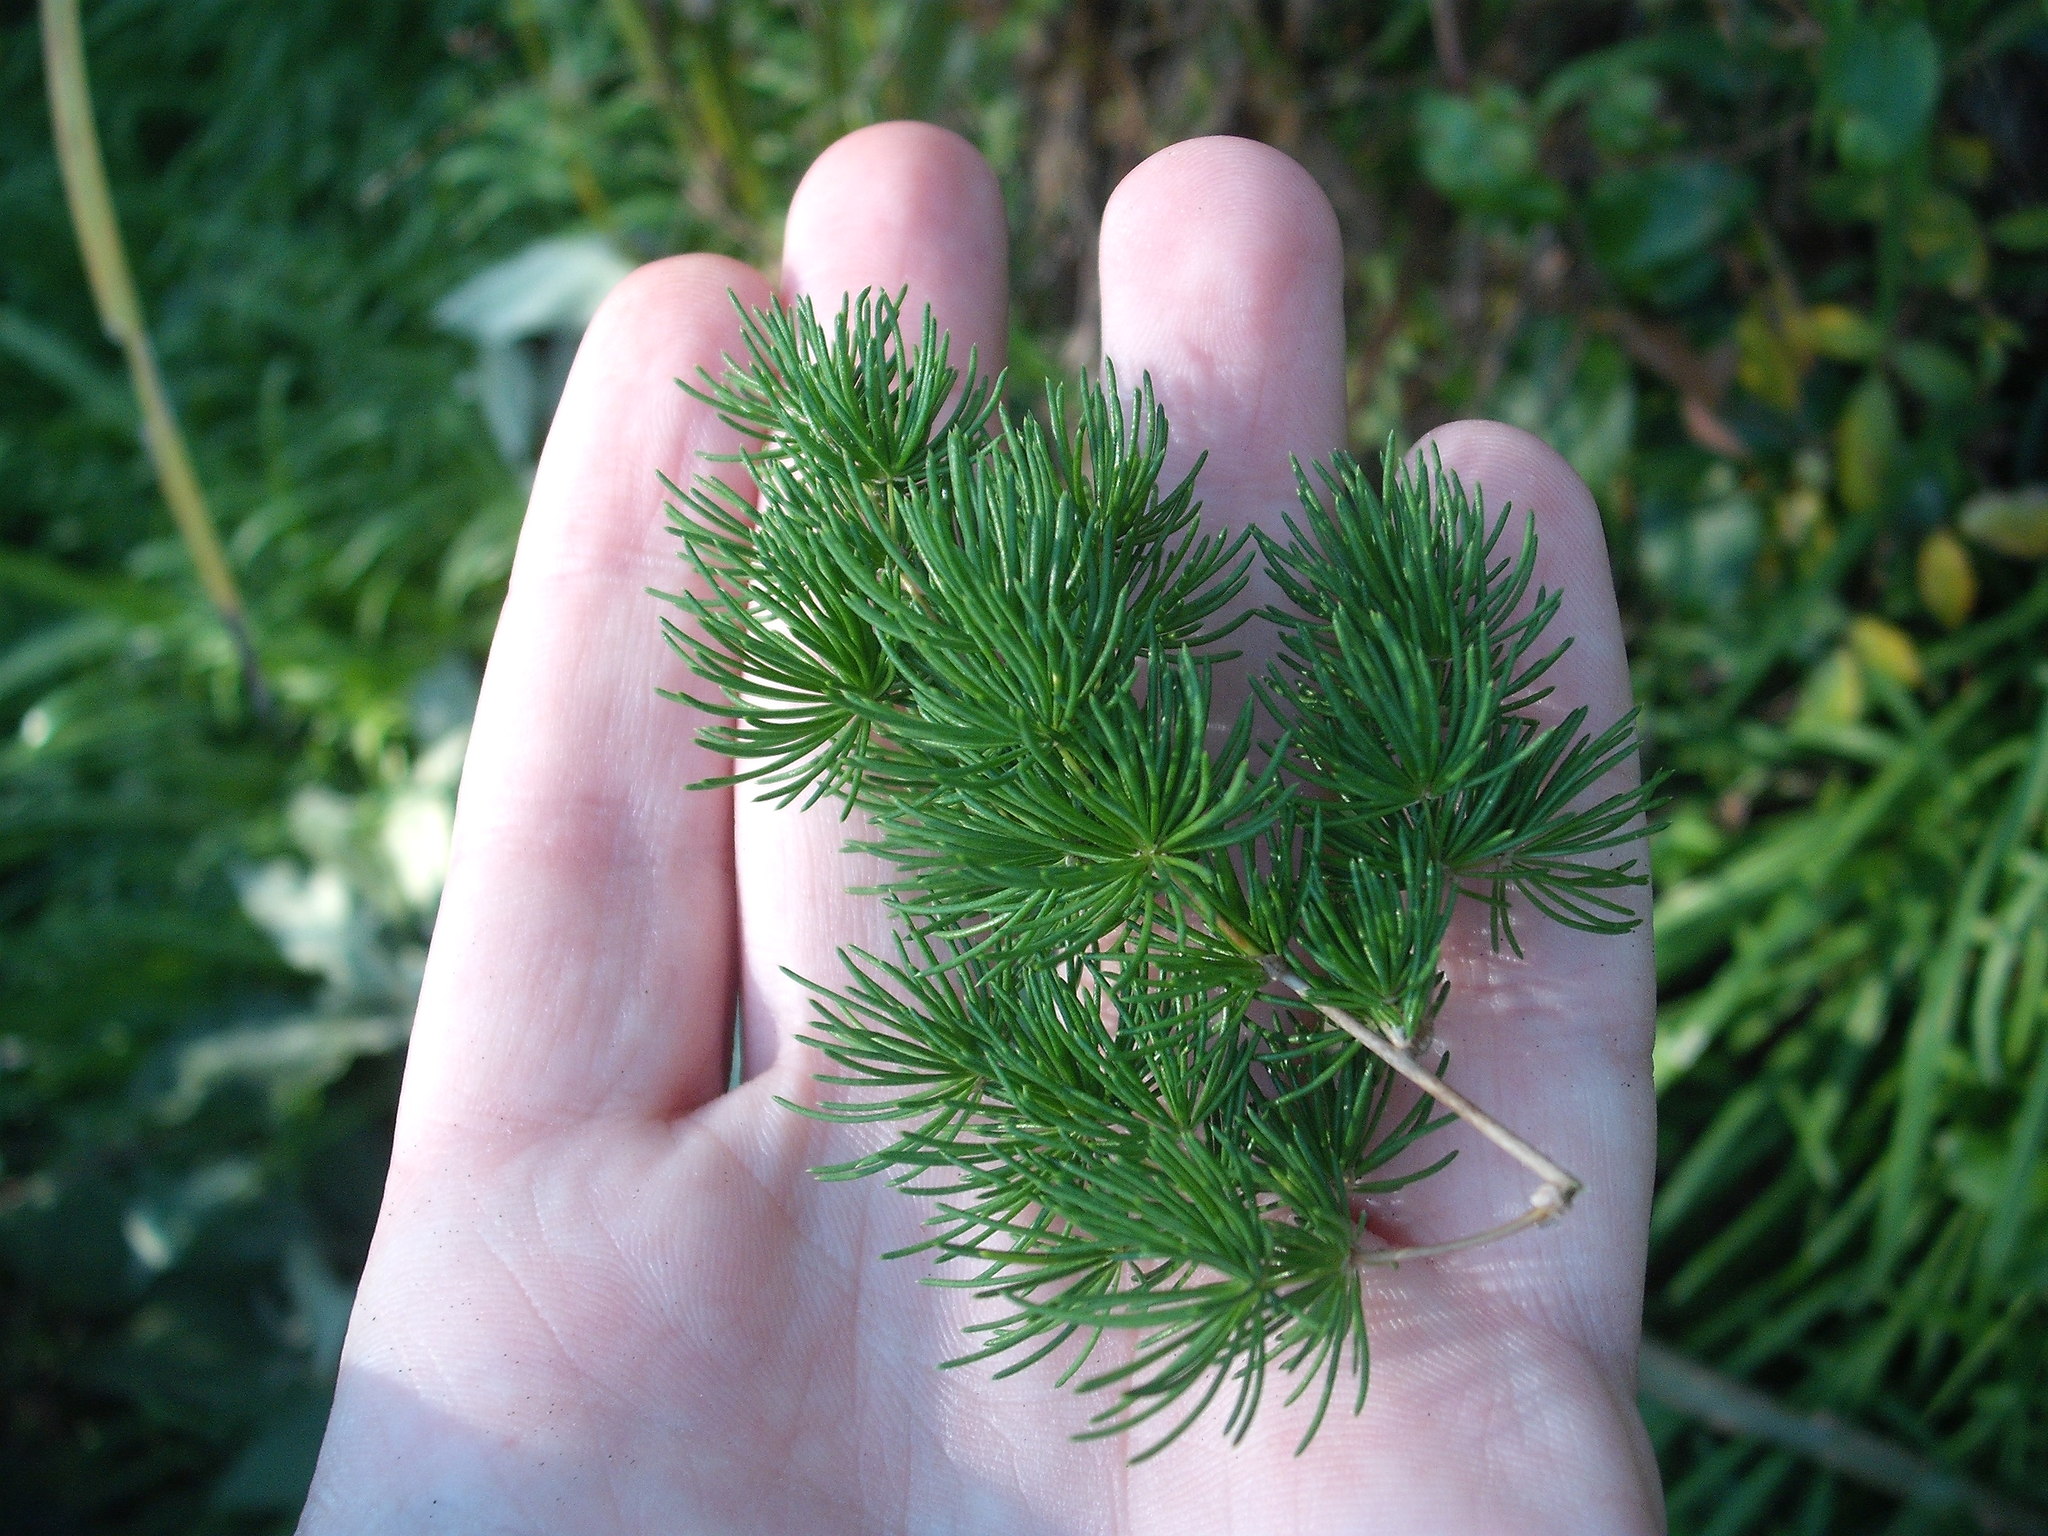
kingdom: Plantae
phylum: Tracheophyta
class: Liliopsida
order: Asparagales
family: Asparagaceae
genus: Asparagus
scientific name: Asparagus retrofractus
